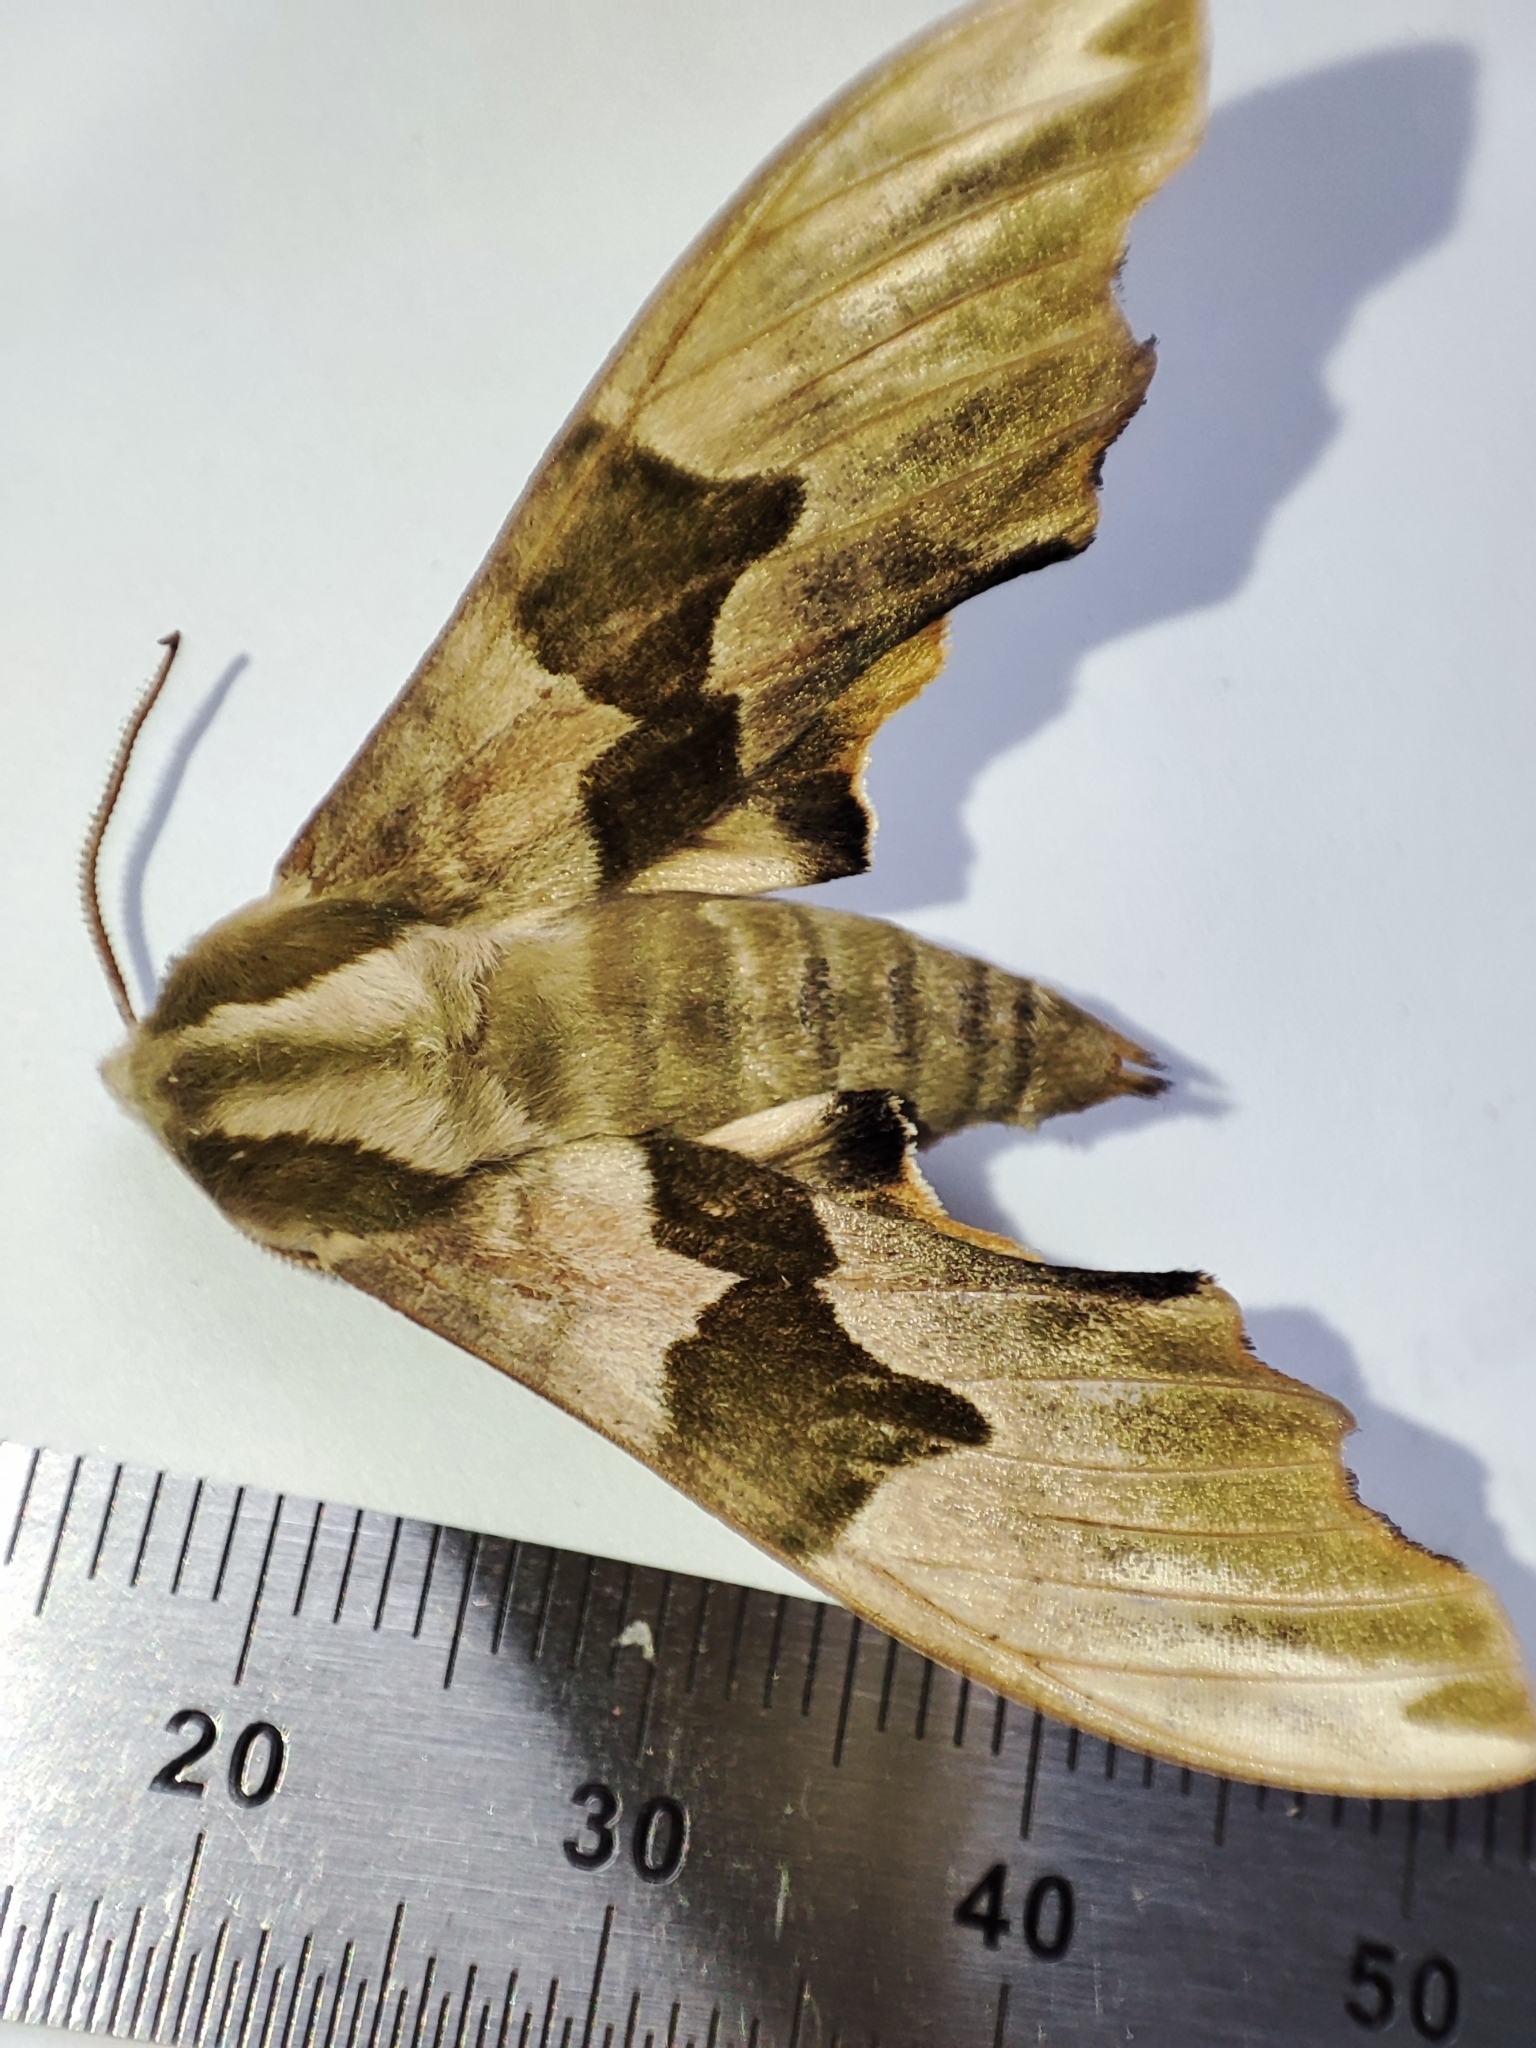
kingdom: Animalia
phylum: Arthropoda
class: Insecta
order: Lepidoptera
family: Sphingidae
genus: Mimas
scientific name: Mimas tiliae
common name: Lime hawk-moth
